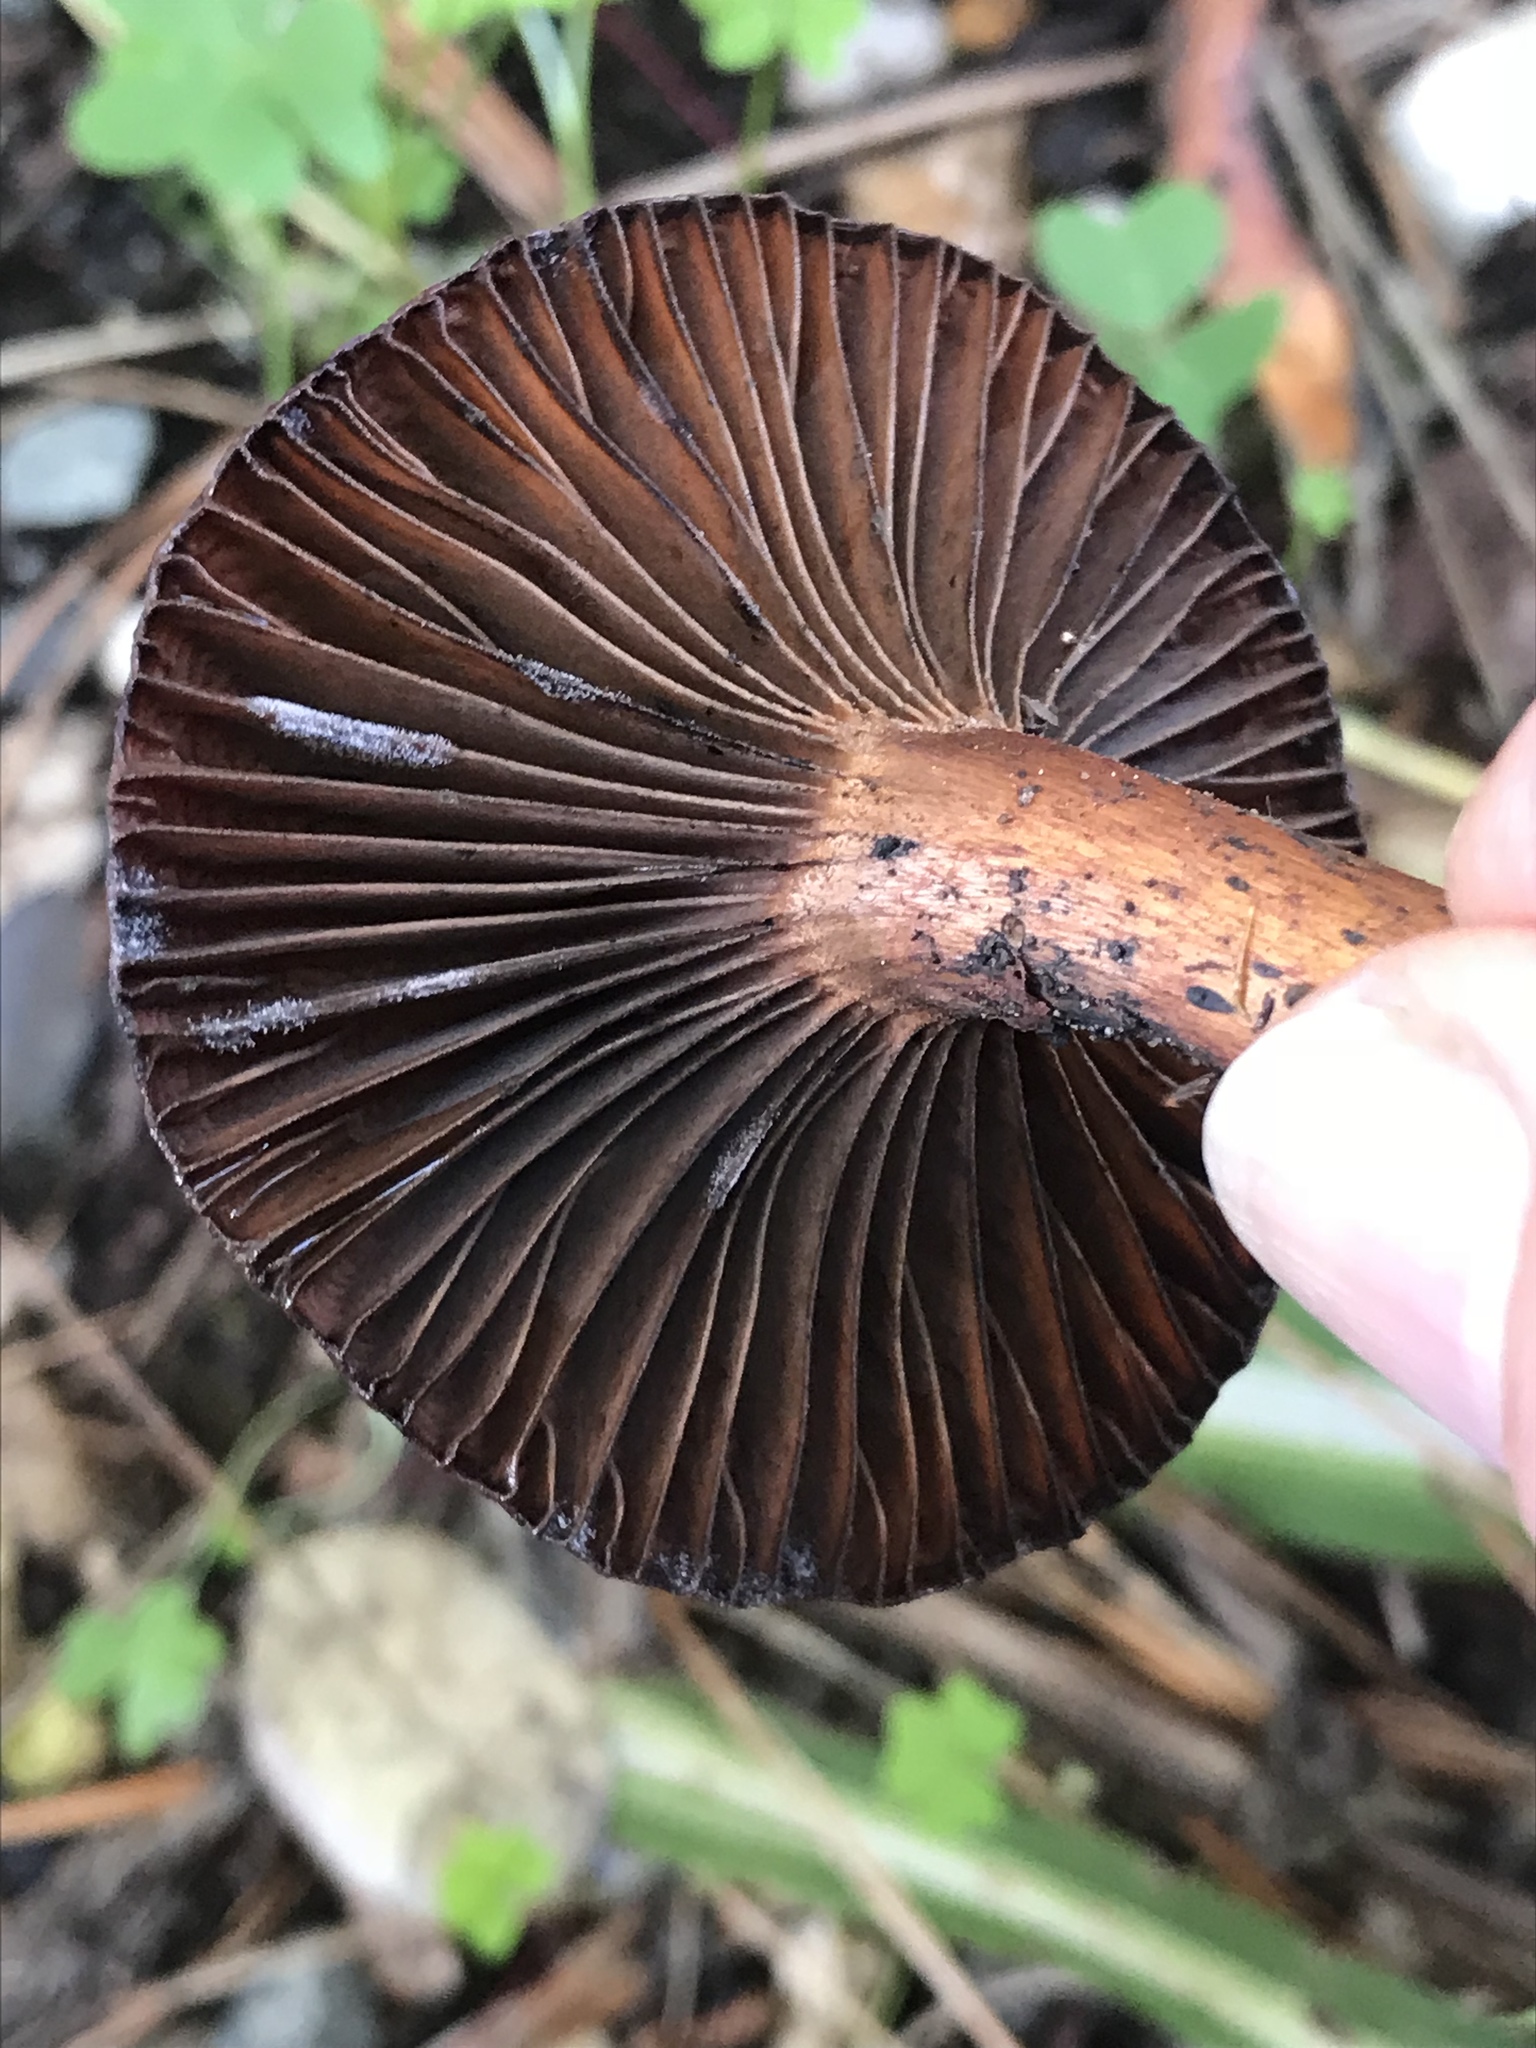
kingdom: Fungi
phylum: Basidiomycota
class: Agaricomycetes
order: Boletales
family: Gomphidiaceae
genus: Chroogomphus
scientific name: Chroogomphus vinicolor
